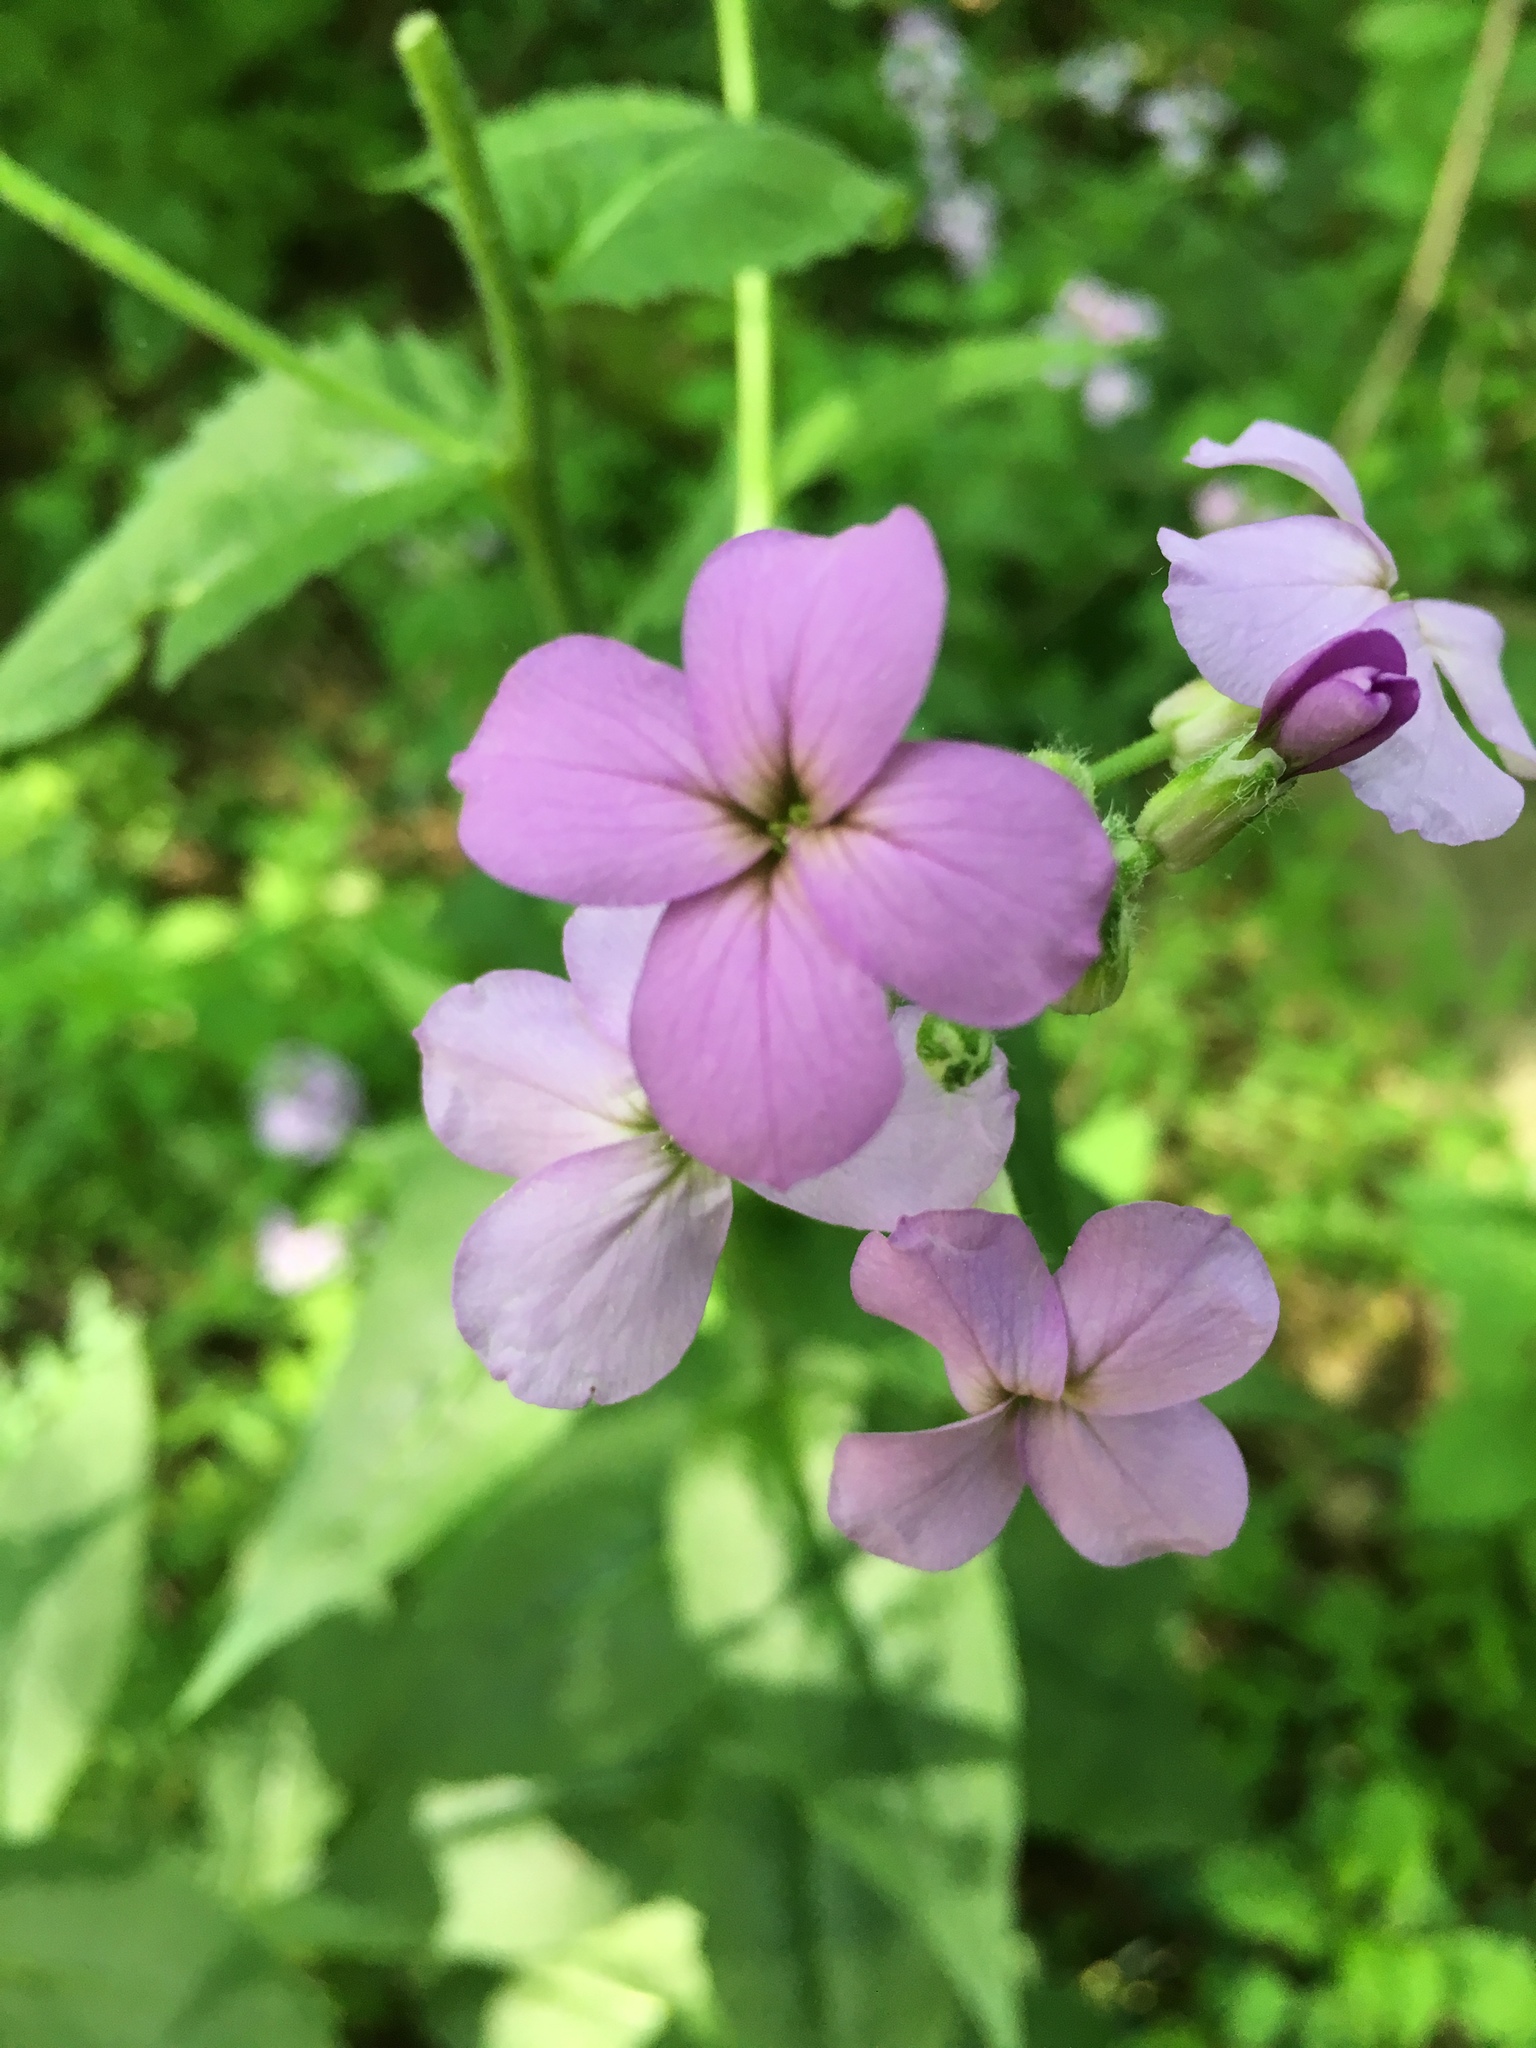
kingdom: Plantae
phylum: Tracheophyta
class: Magnoliopsida
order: Brassicales
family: Brassicaceae
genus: Hesperis
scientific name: Hesperis matronalis
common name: Dame's-violet
